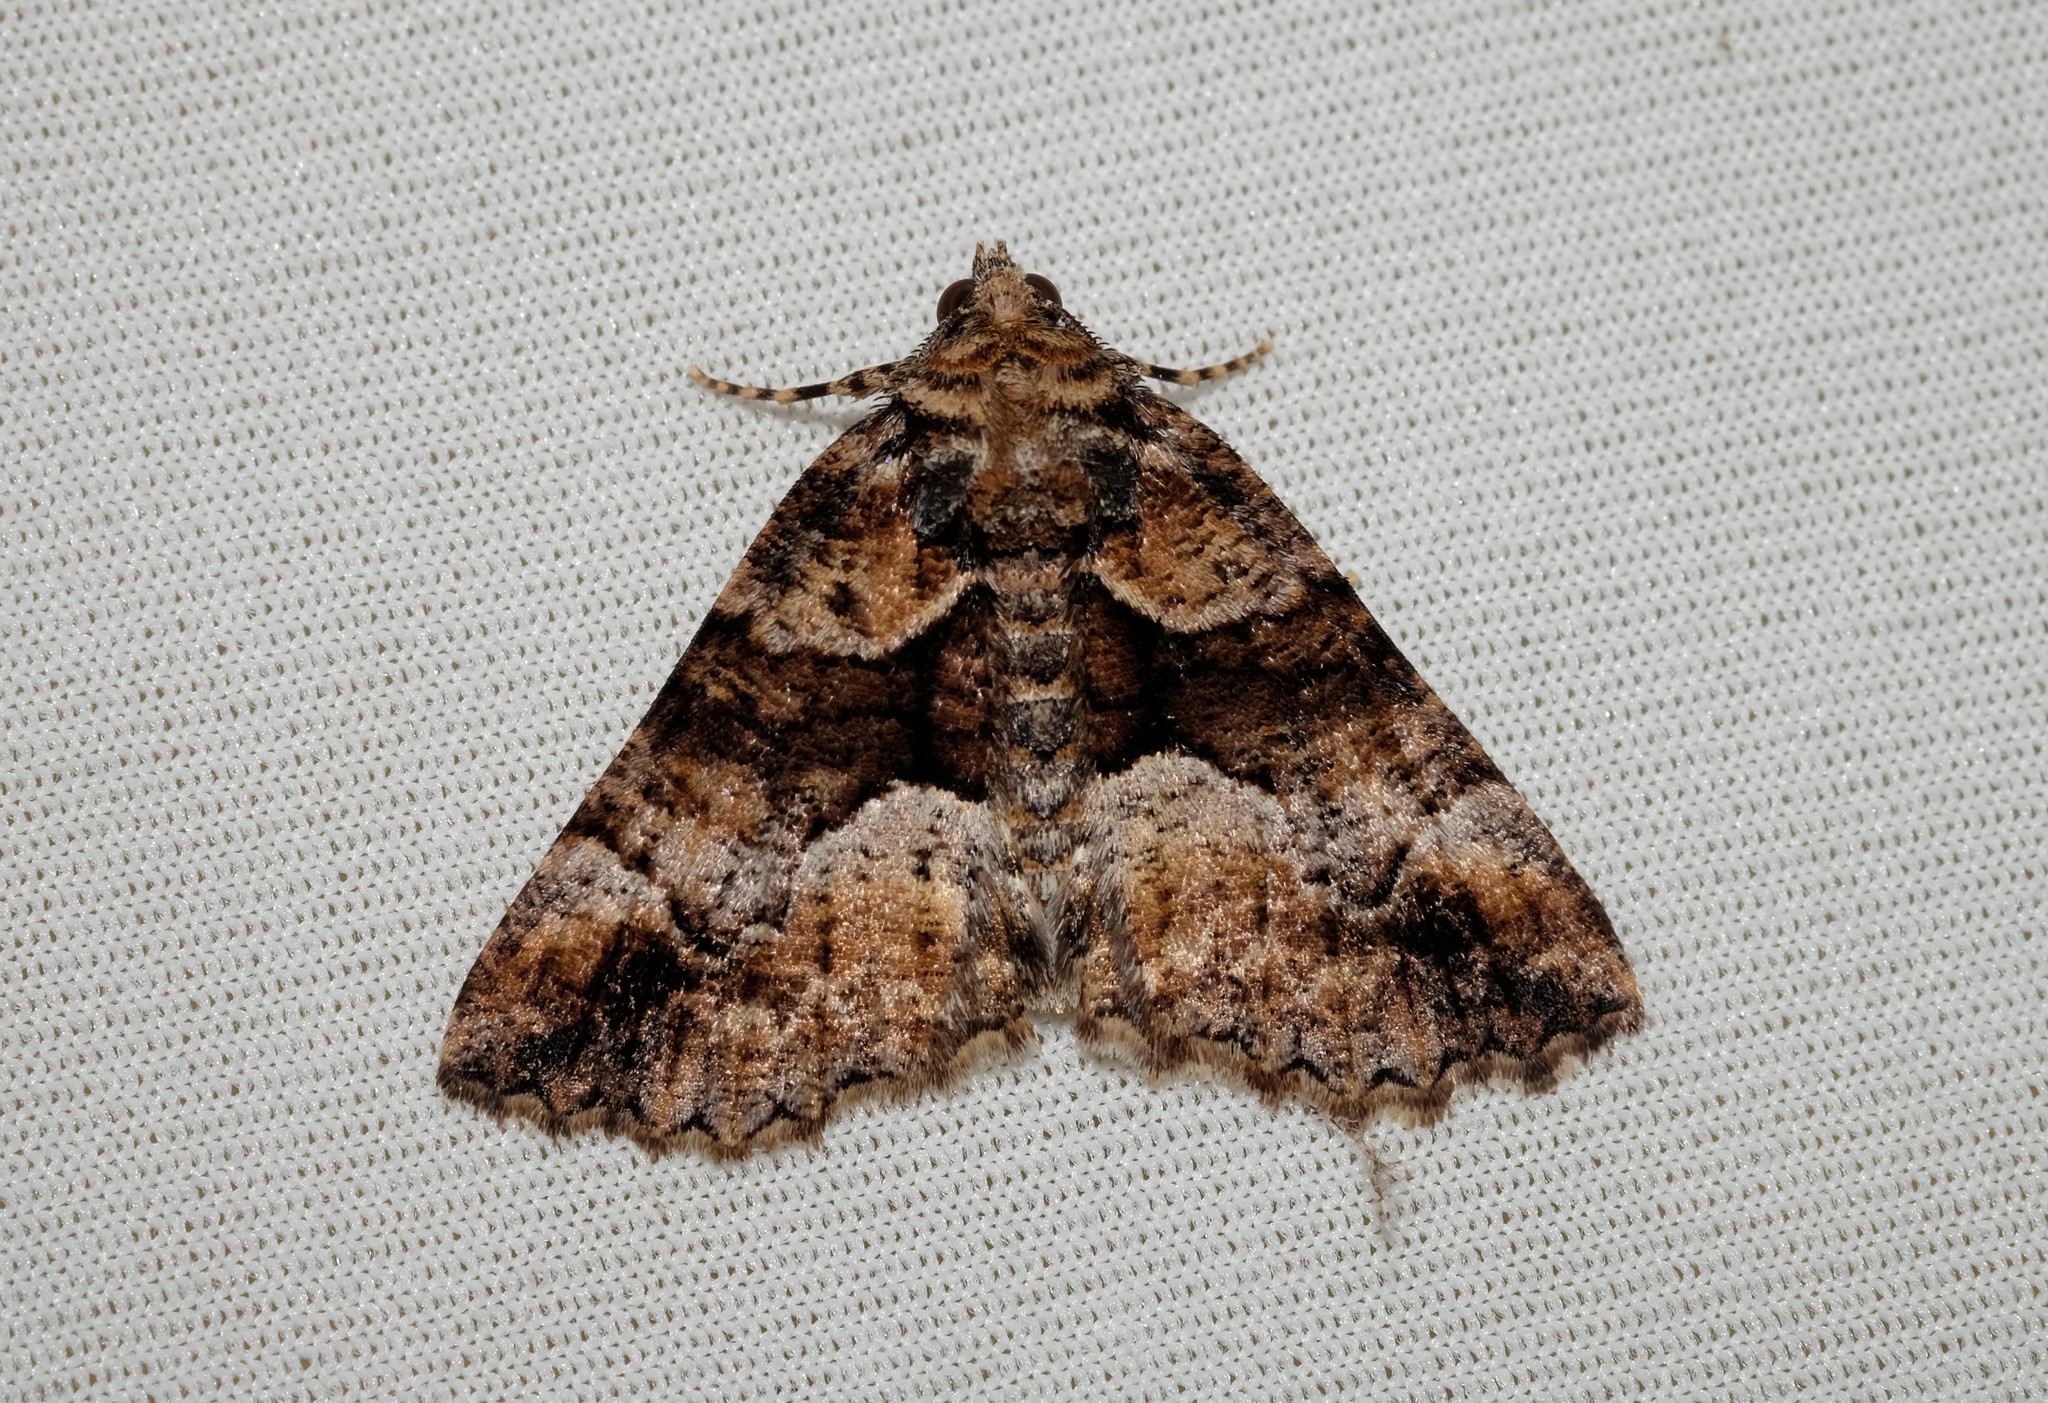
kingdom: Animalia
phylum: Arthropoda
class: Insecta
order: Lepidoptera
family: Geometridae
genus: Gastrina
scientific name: Gastrina cristaria
